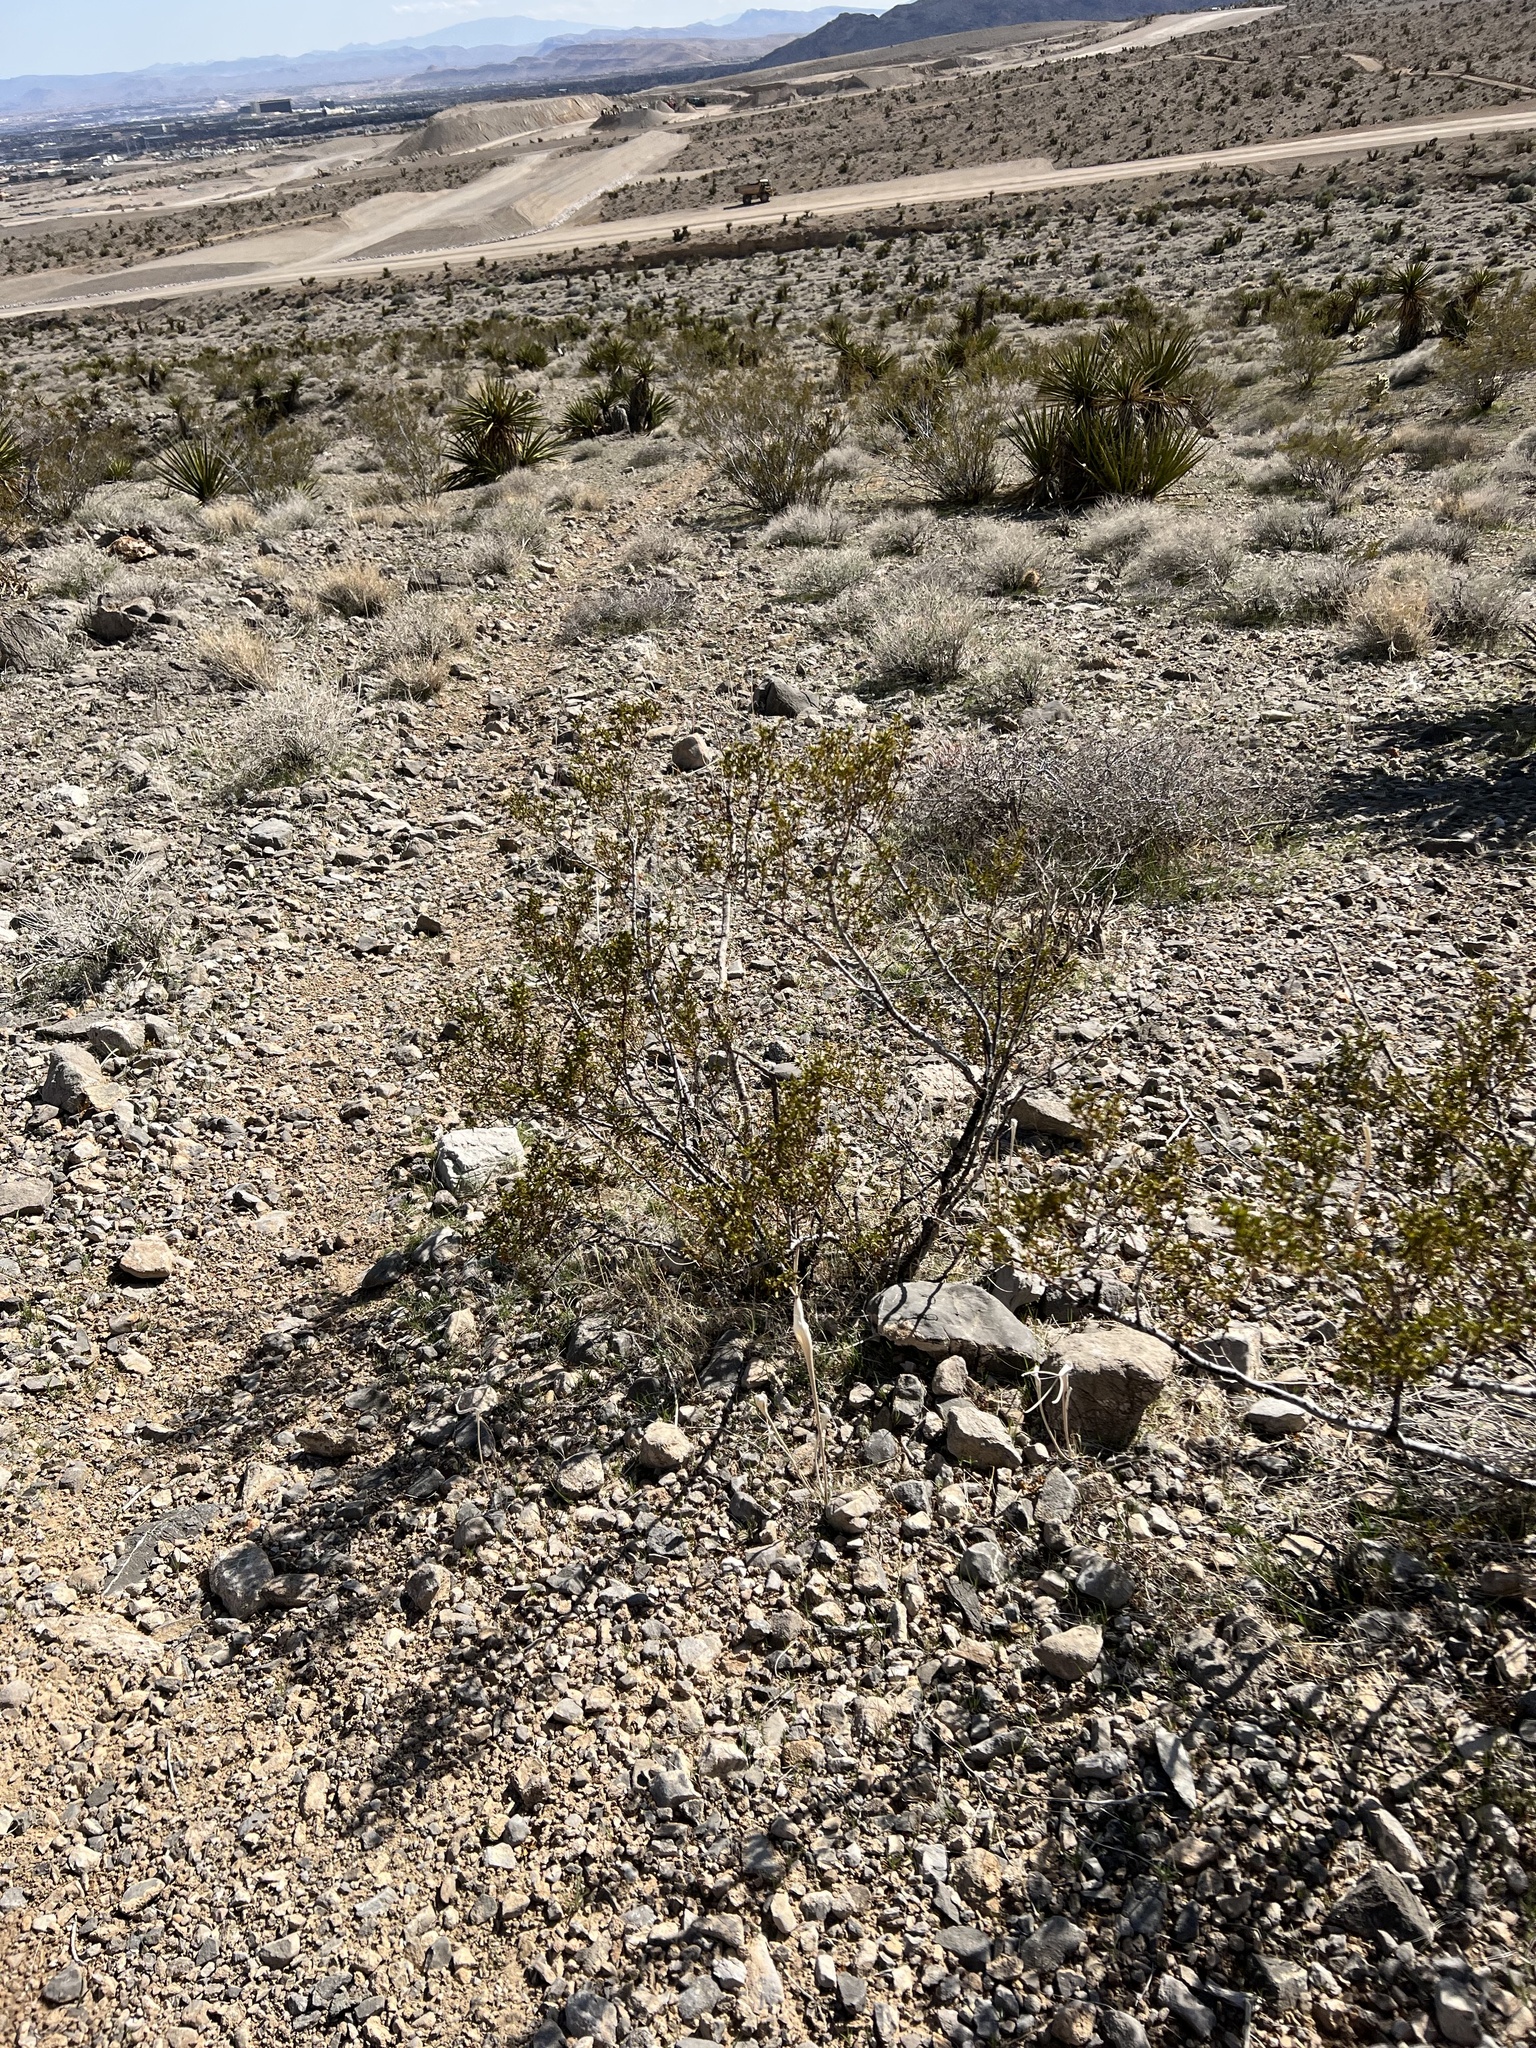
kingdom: Plantae
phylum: Tracheophyta
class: Magnoliopsida
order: Zygophyllales
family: Zygophyllaceae
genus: Larrea
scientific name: Larrea tridentata
